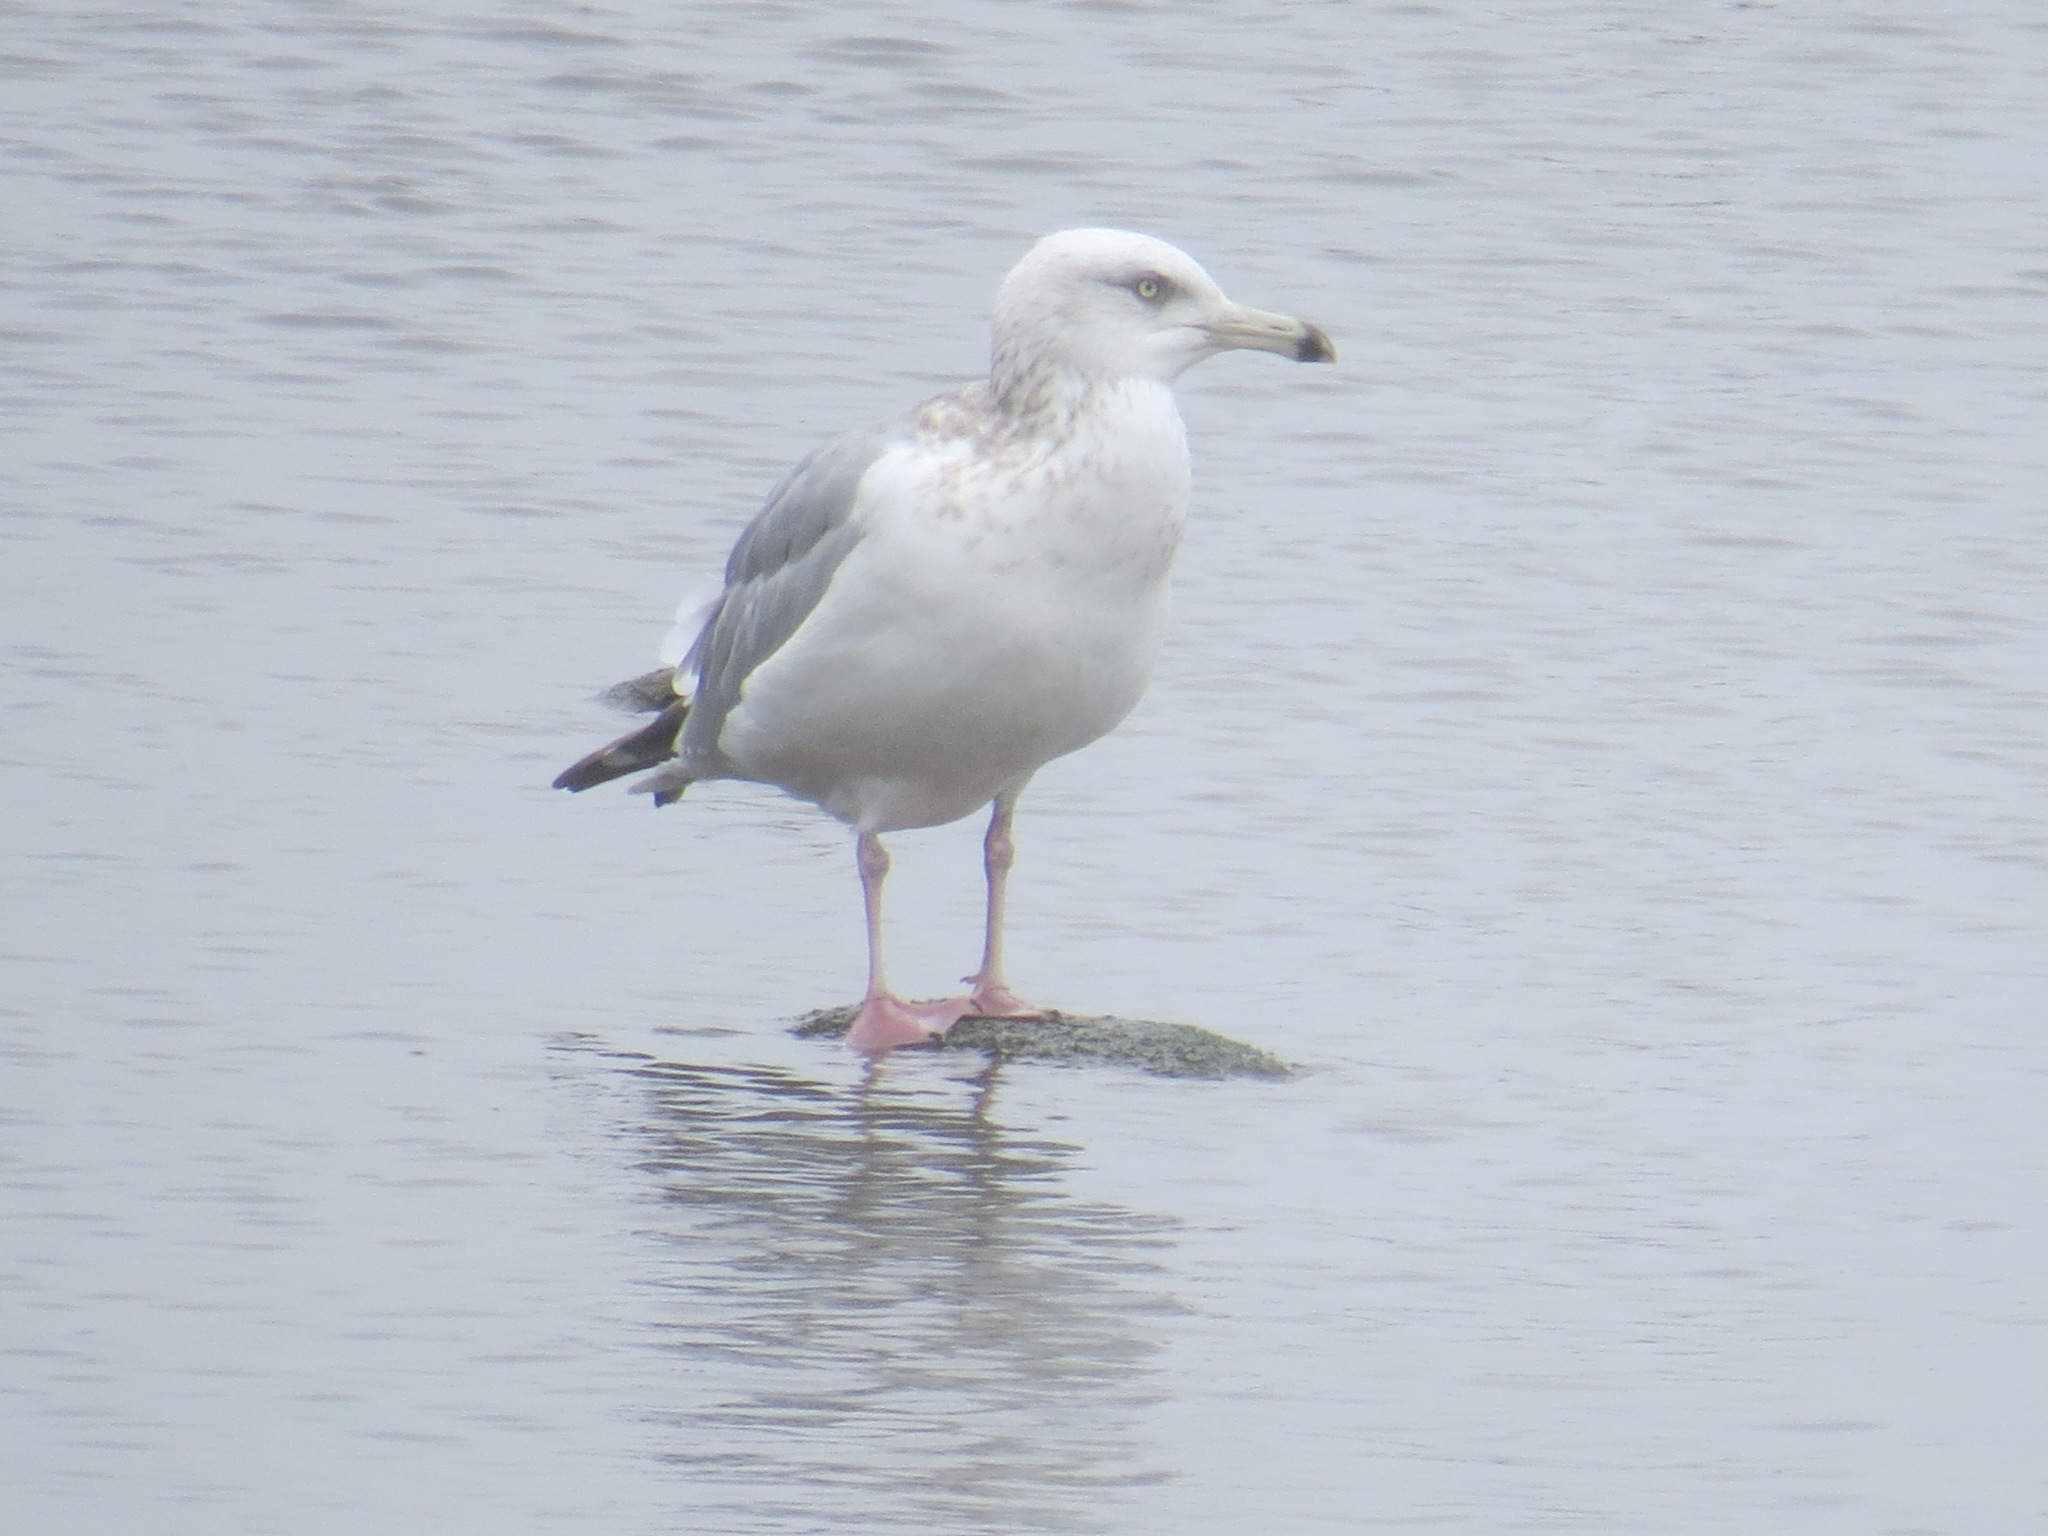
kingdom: Animalia
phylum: Chordata
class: Aves
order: Charadriiformes
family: Laridae
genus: Larus
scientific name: Larus argentatus
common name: Herring gull
